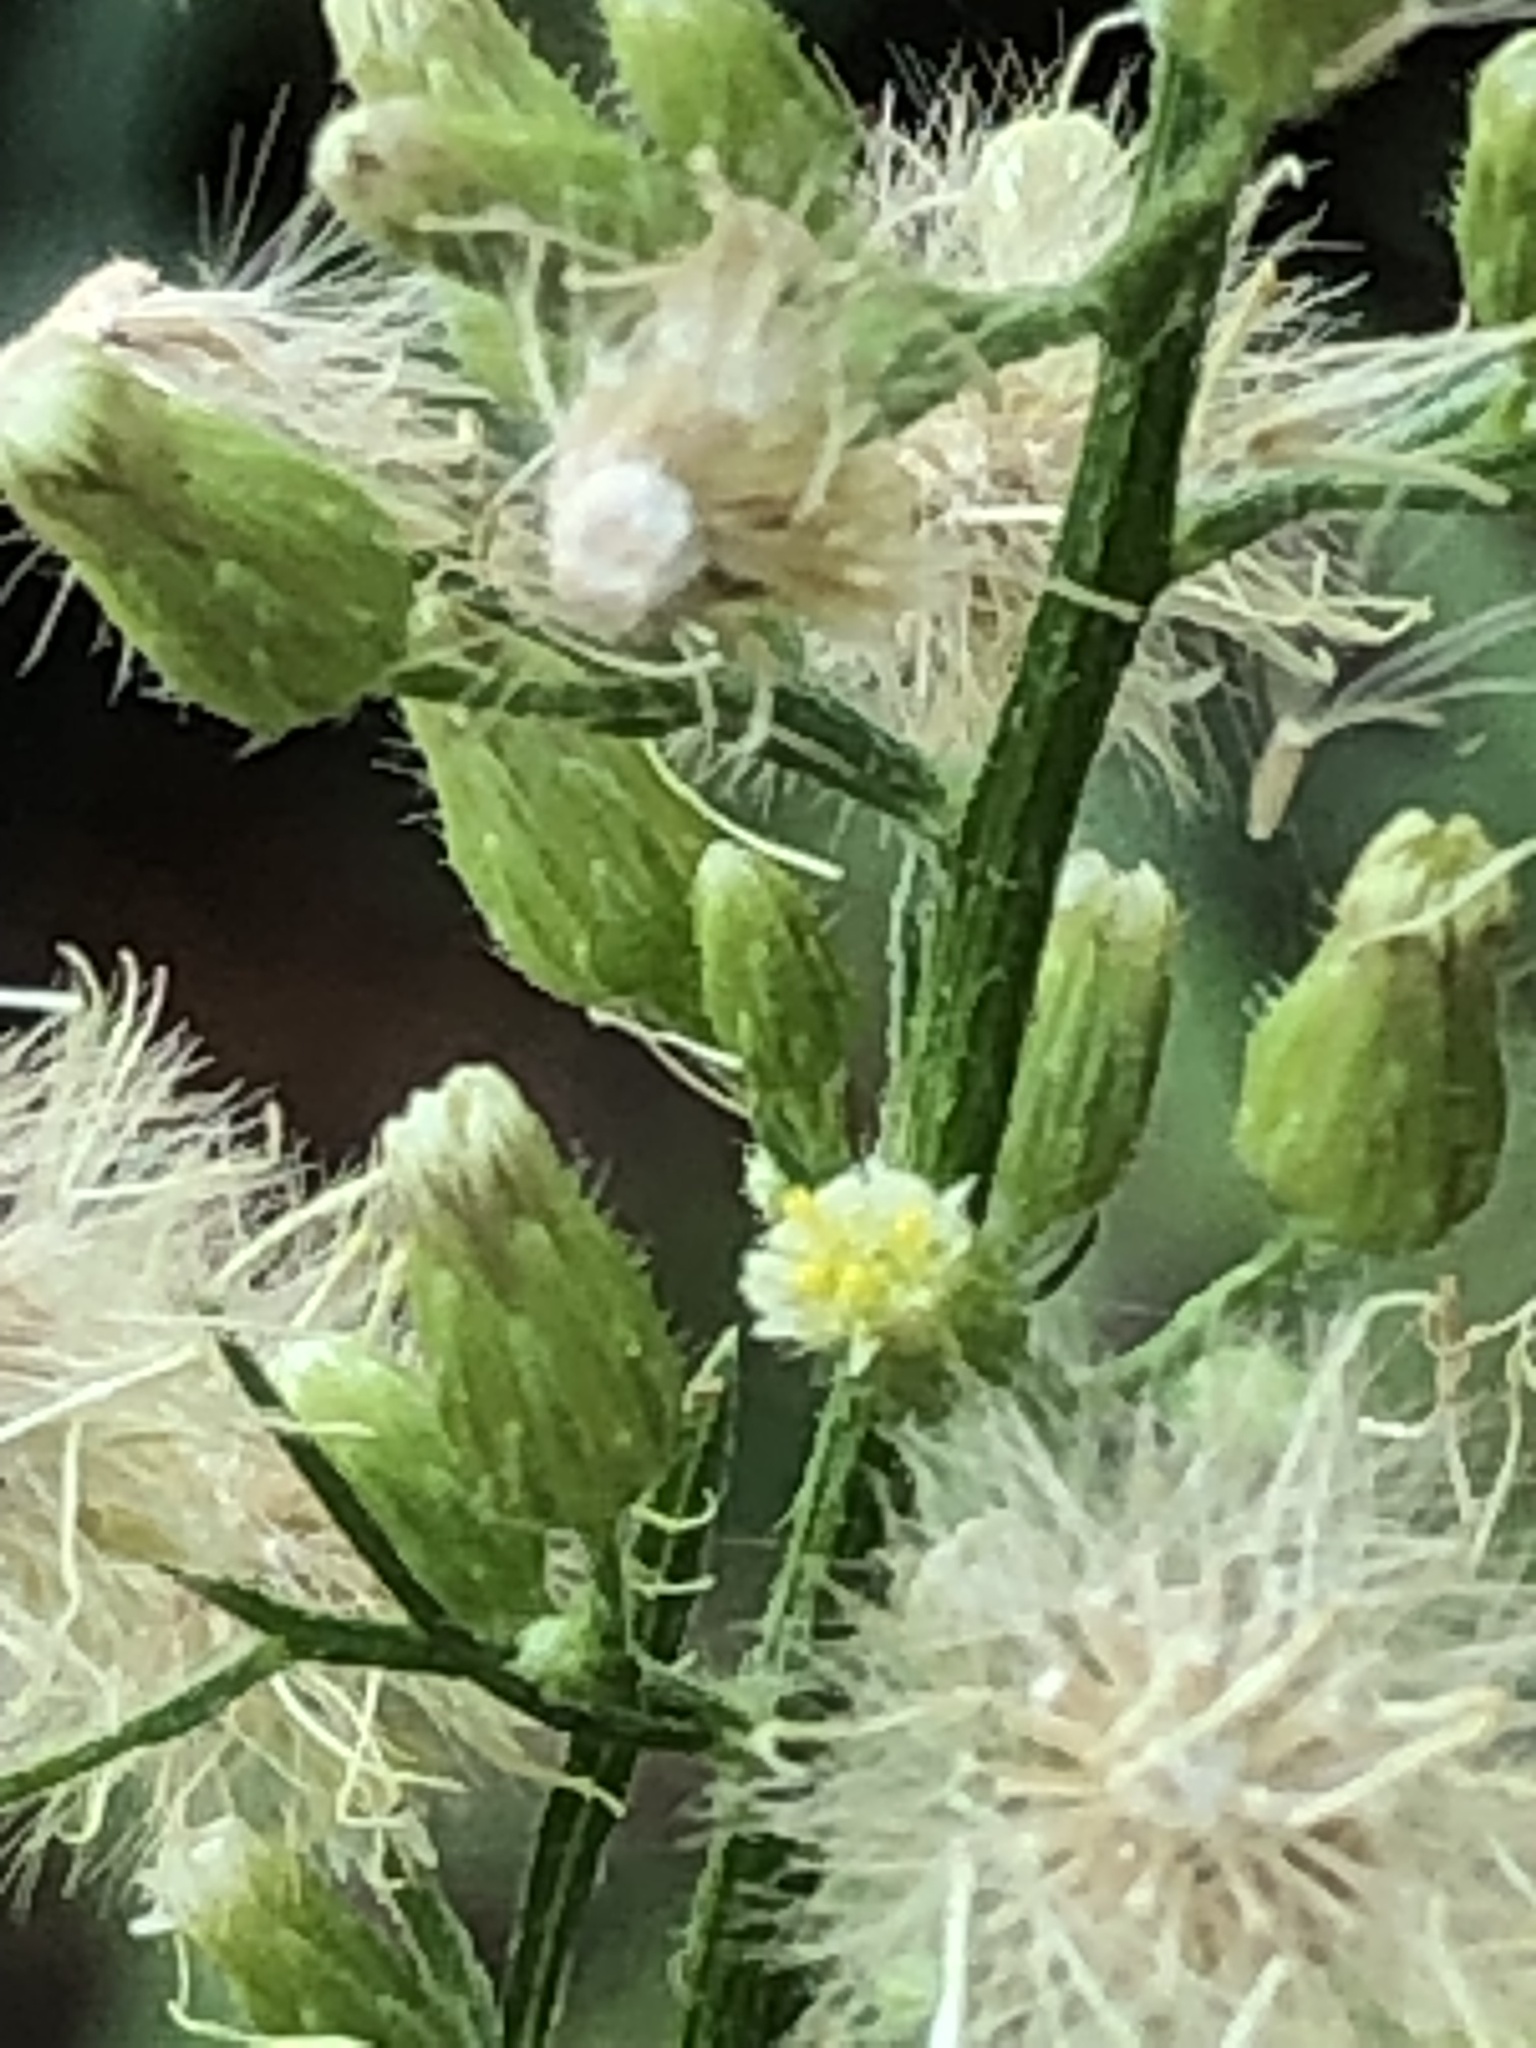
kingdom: Plantae
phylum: Tracheophyta
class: Magnoliopsida
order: Asterales
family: Asteraceae
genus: Erigeron
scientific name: Erigeron canadensis
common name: Canadian fleabane
